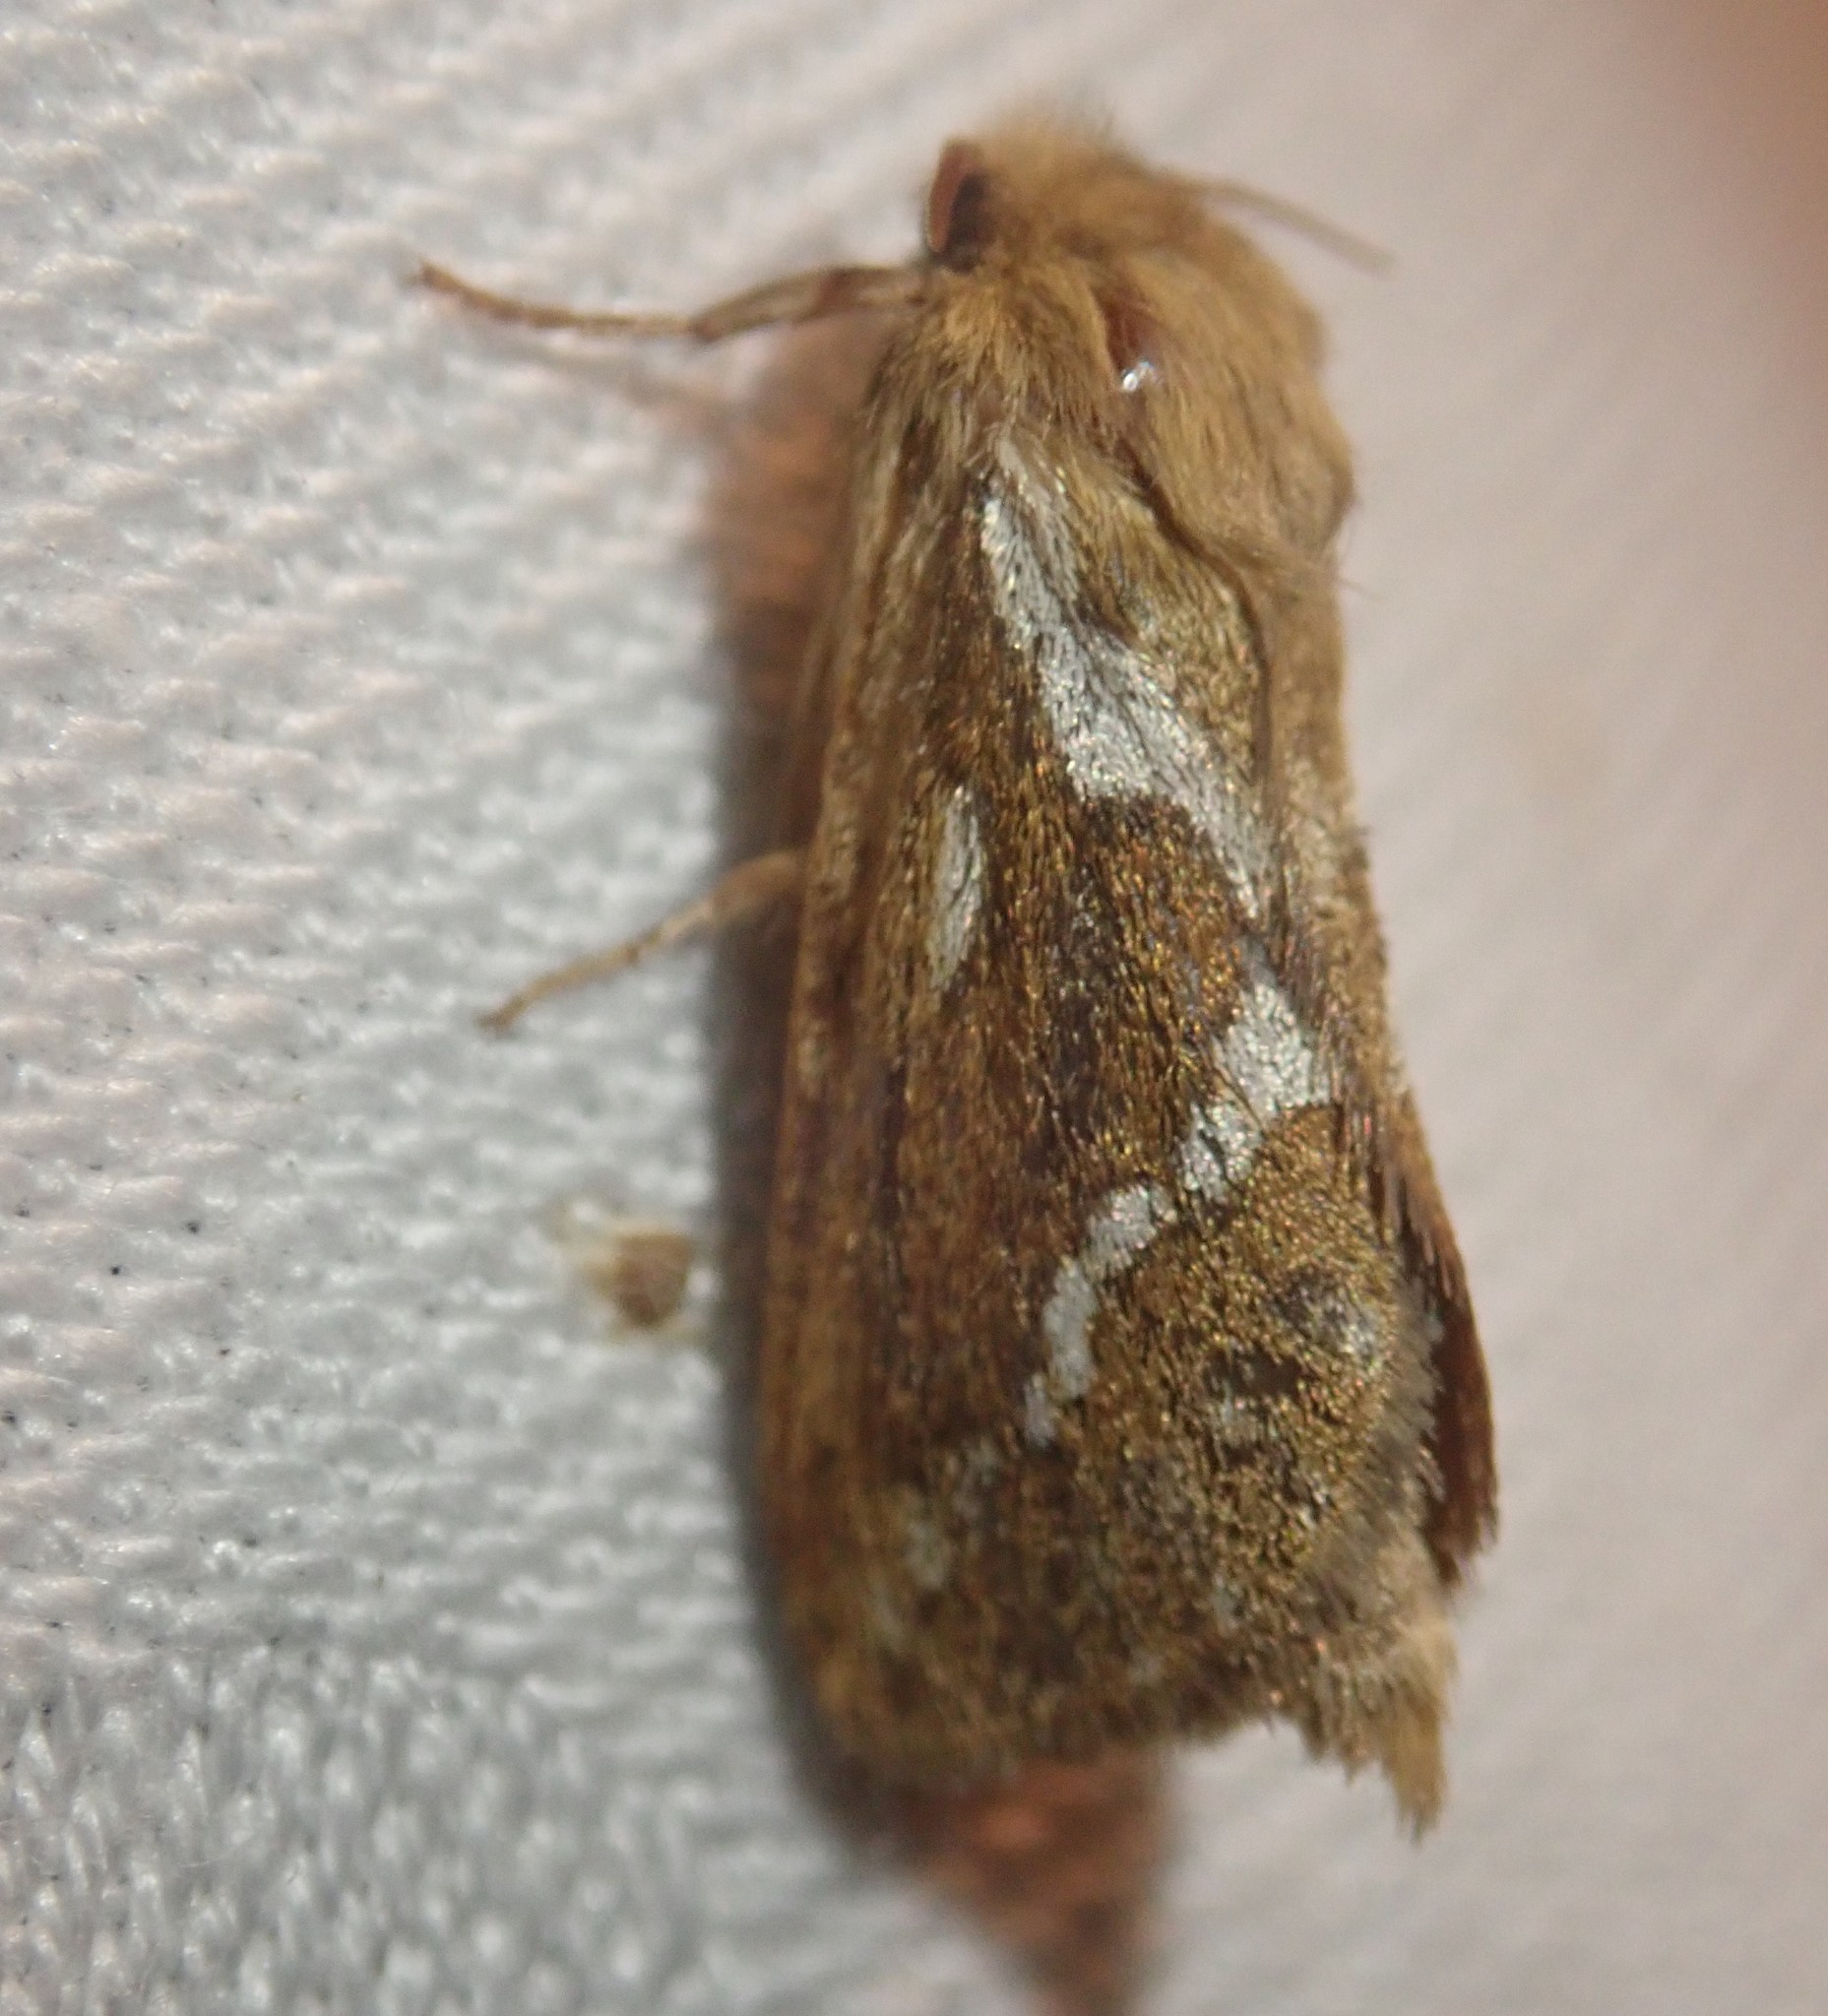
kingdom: Animalia
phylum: Arthropoda
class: Insecta
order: Lepidoptera
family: Hepialidae
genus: Korscheltellus
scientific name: Korscheltellus lupulina
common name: Common swift
